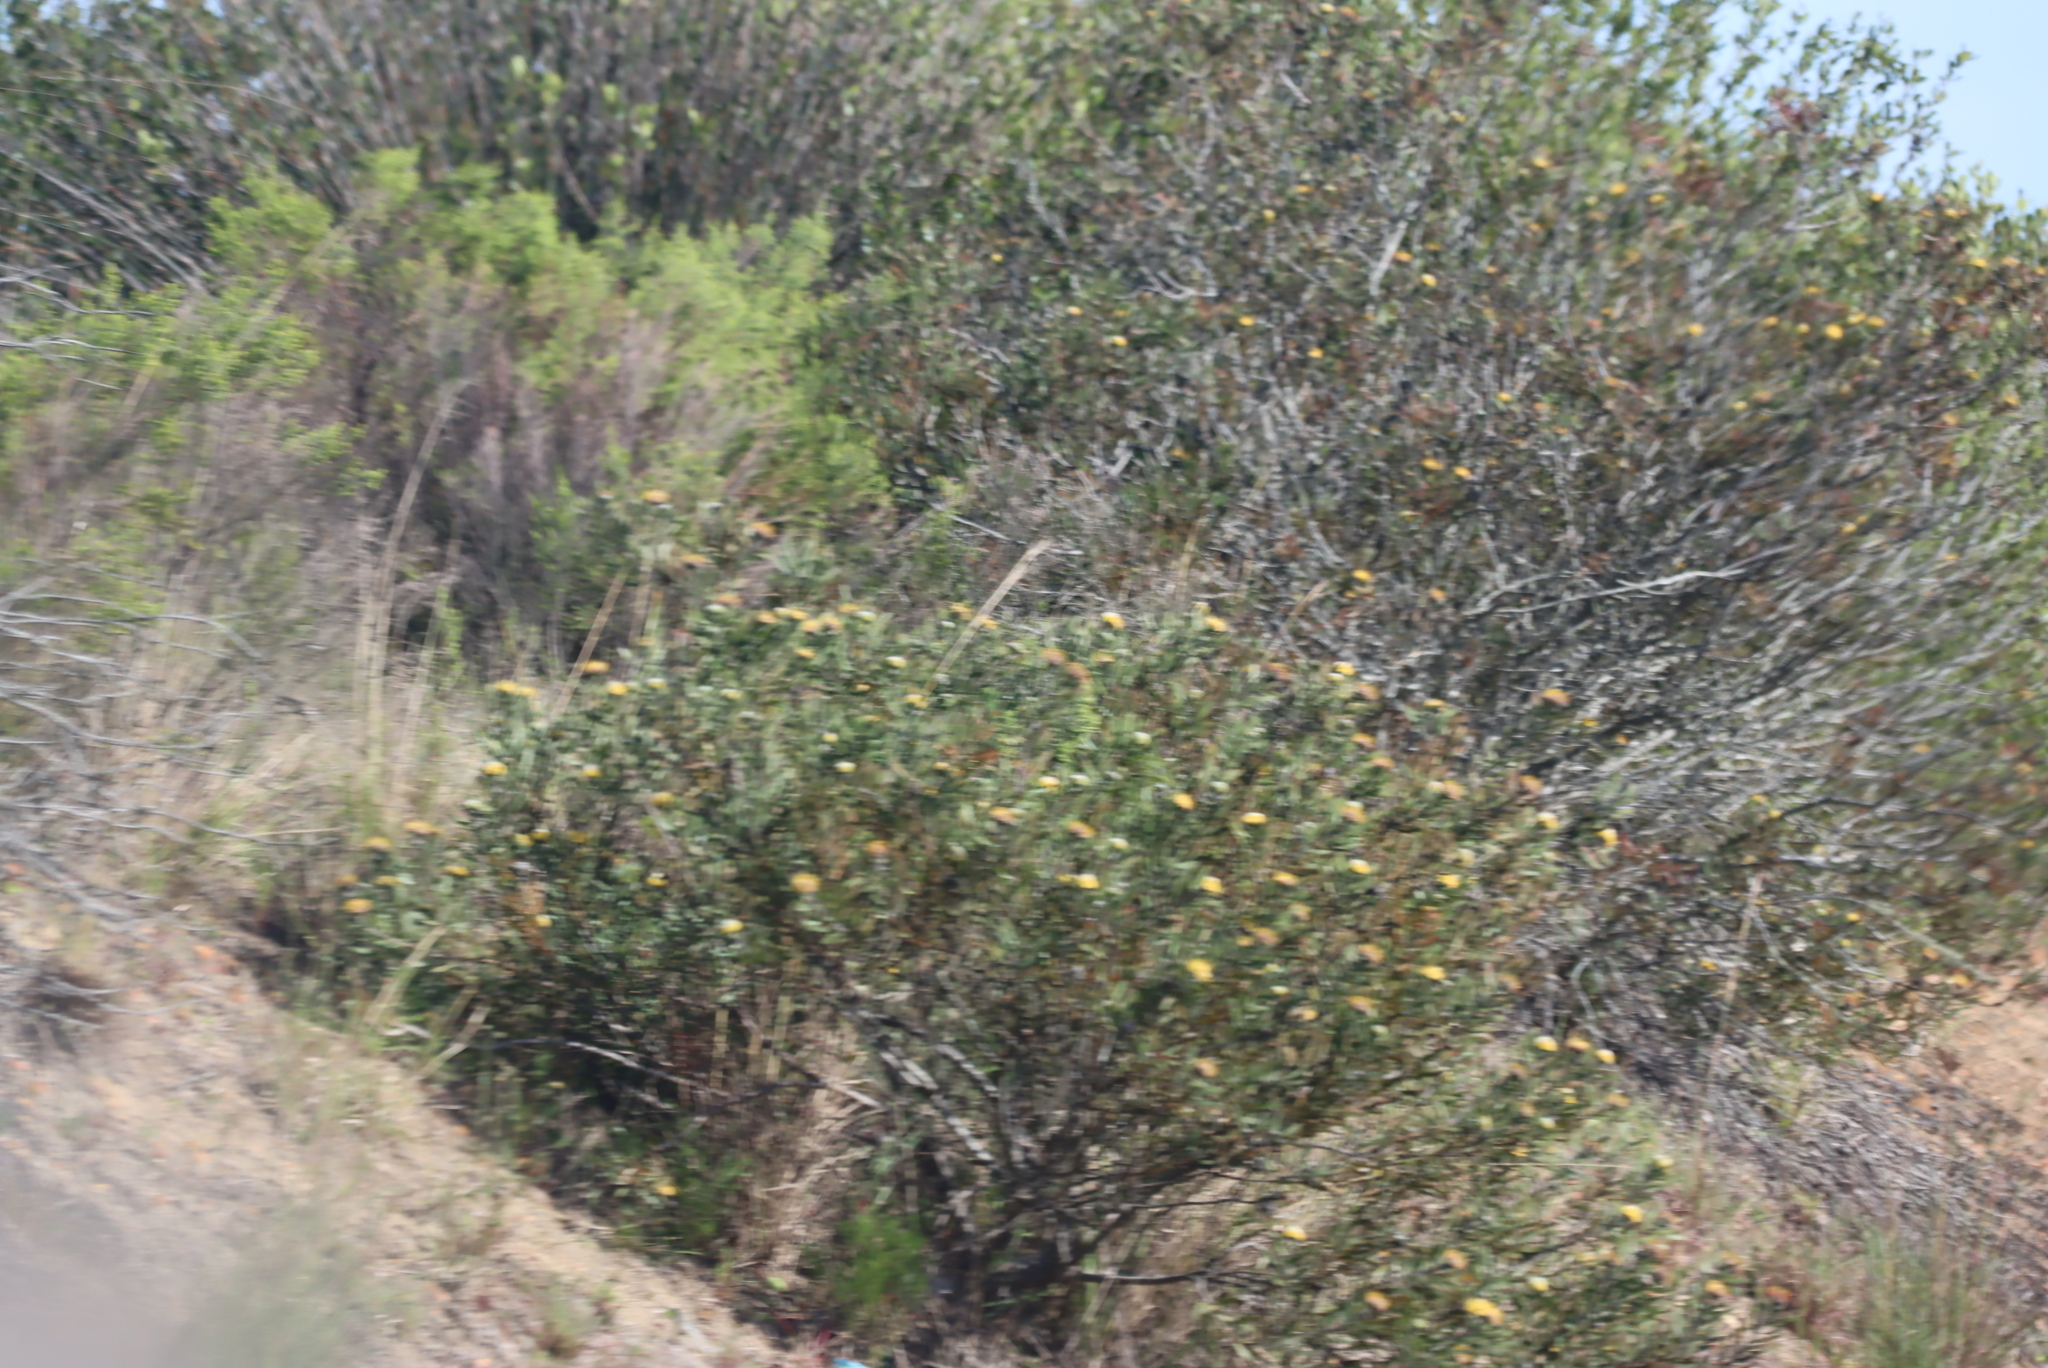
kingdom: Plantae
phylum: Tracheophyta
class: Magnoliopsida
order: Proteales
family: Proteaceae
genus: Leucospermum
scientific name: Leucospermum muirii
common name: Albertinia pincushion
